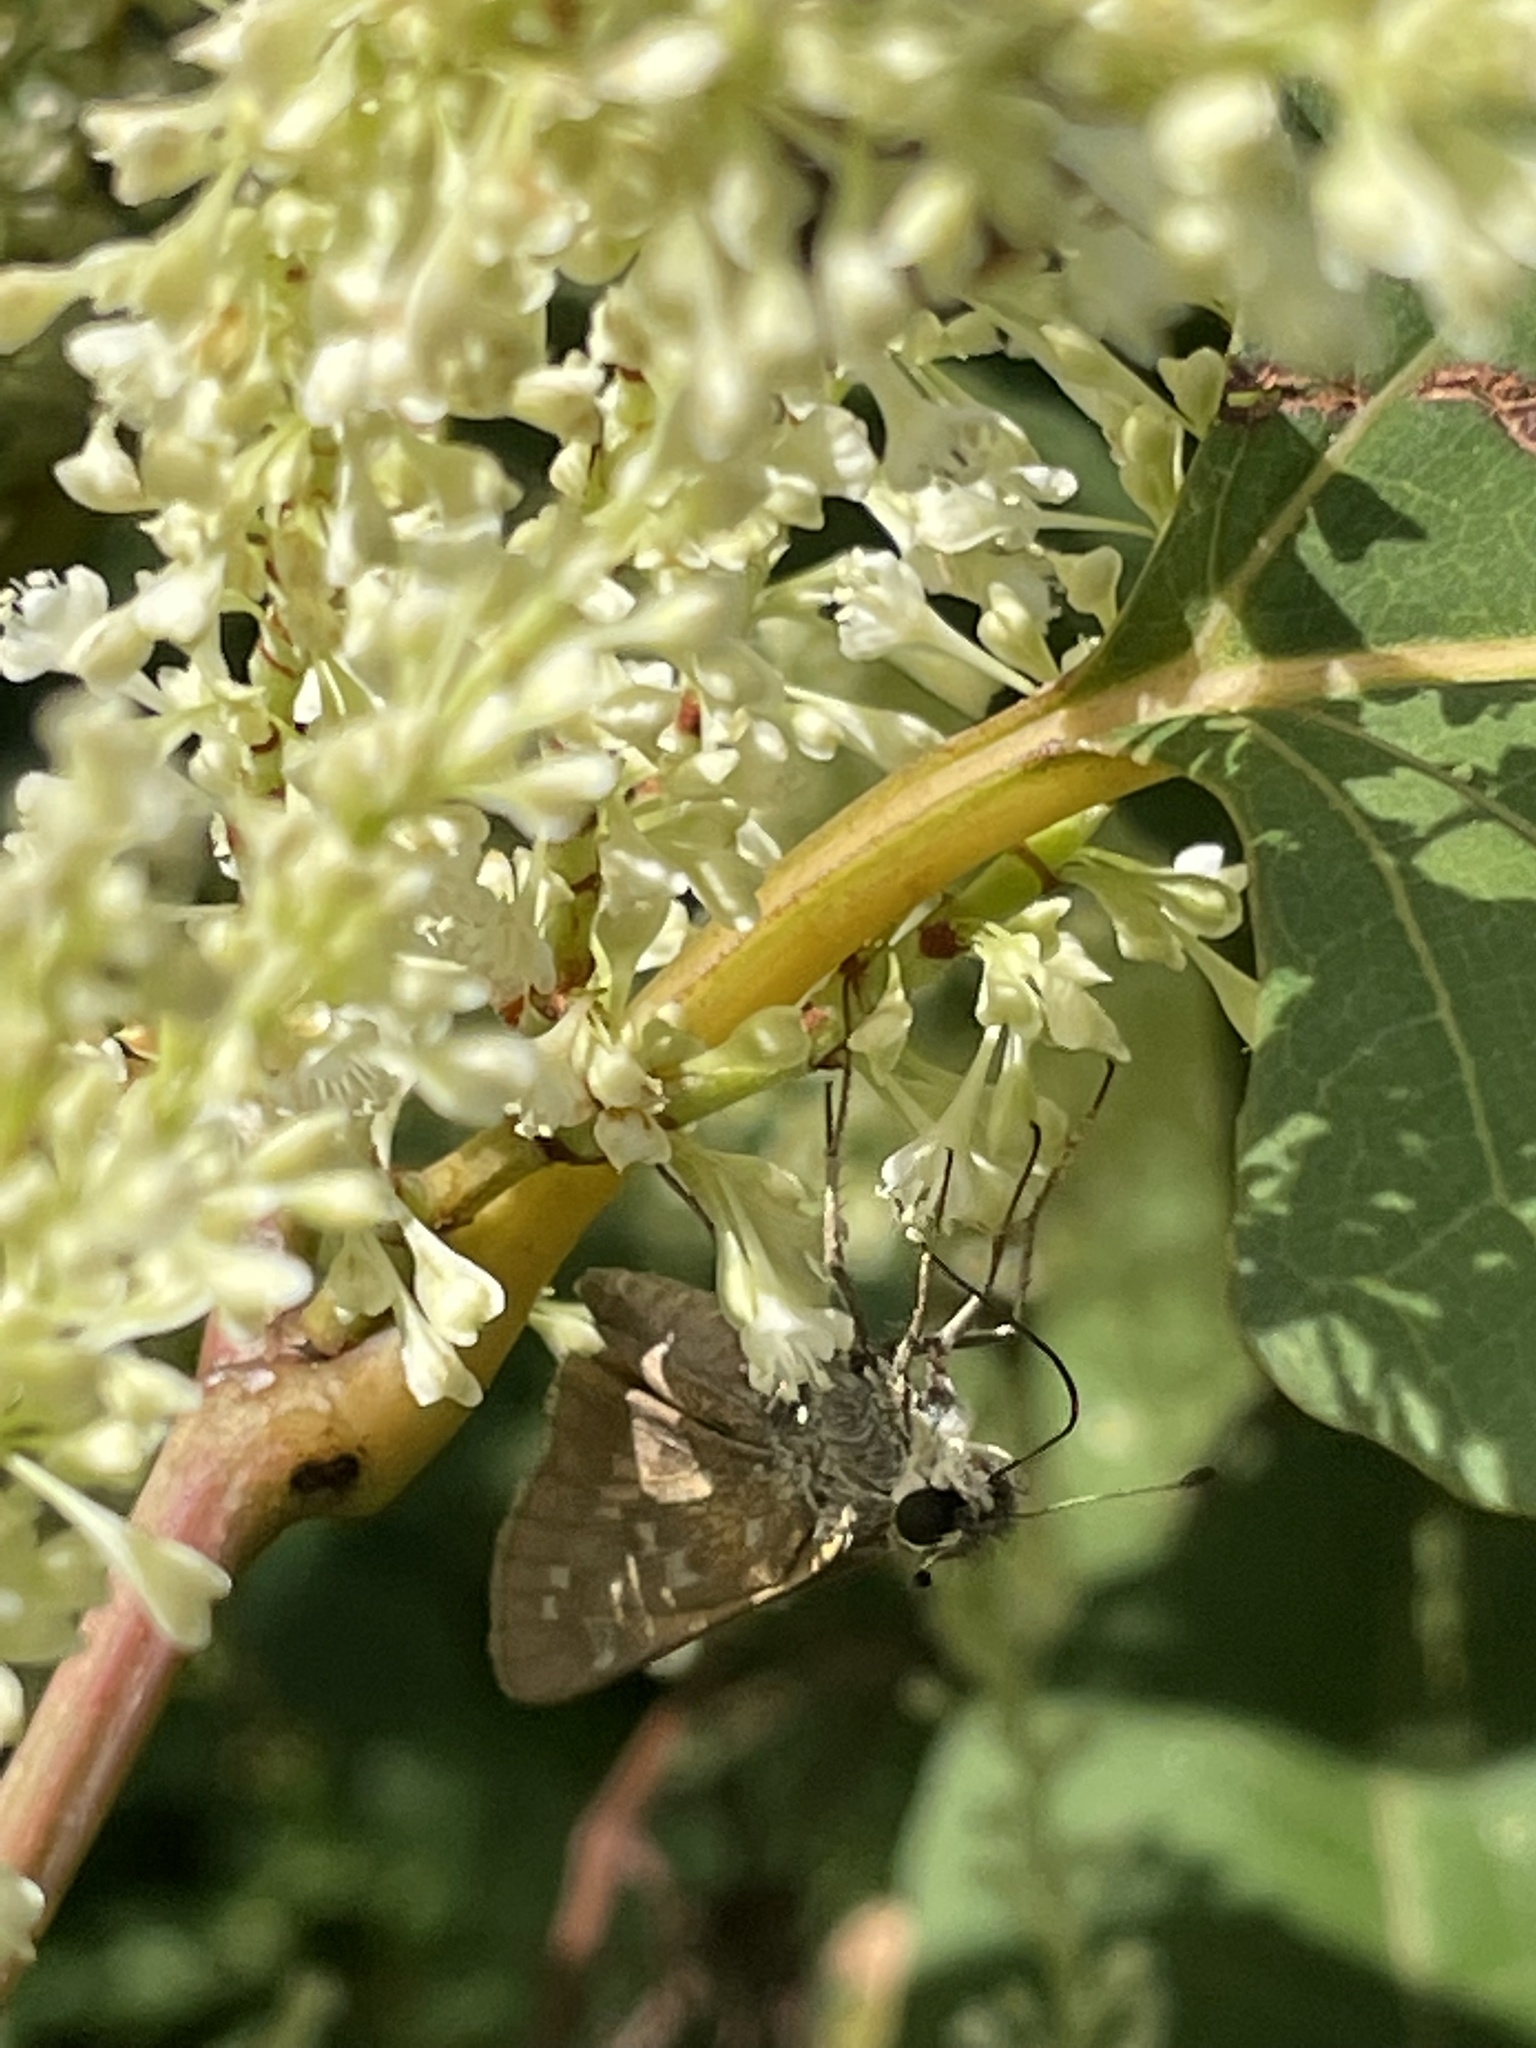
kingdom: Animalia
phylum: Arthropoda
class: Insecta
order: Lepidoptera
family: Hesperiidae
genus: Atalopedes
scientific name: Atalopedes
